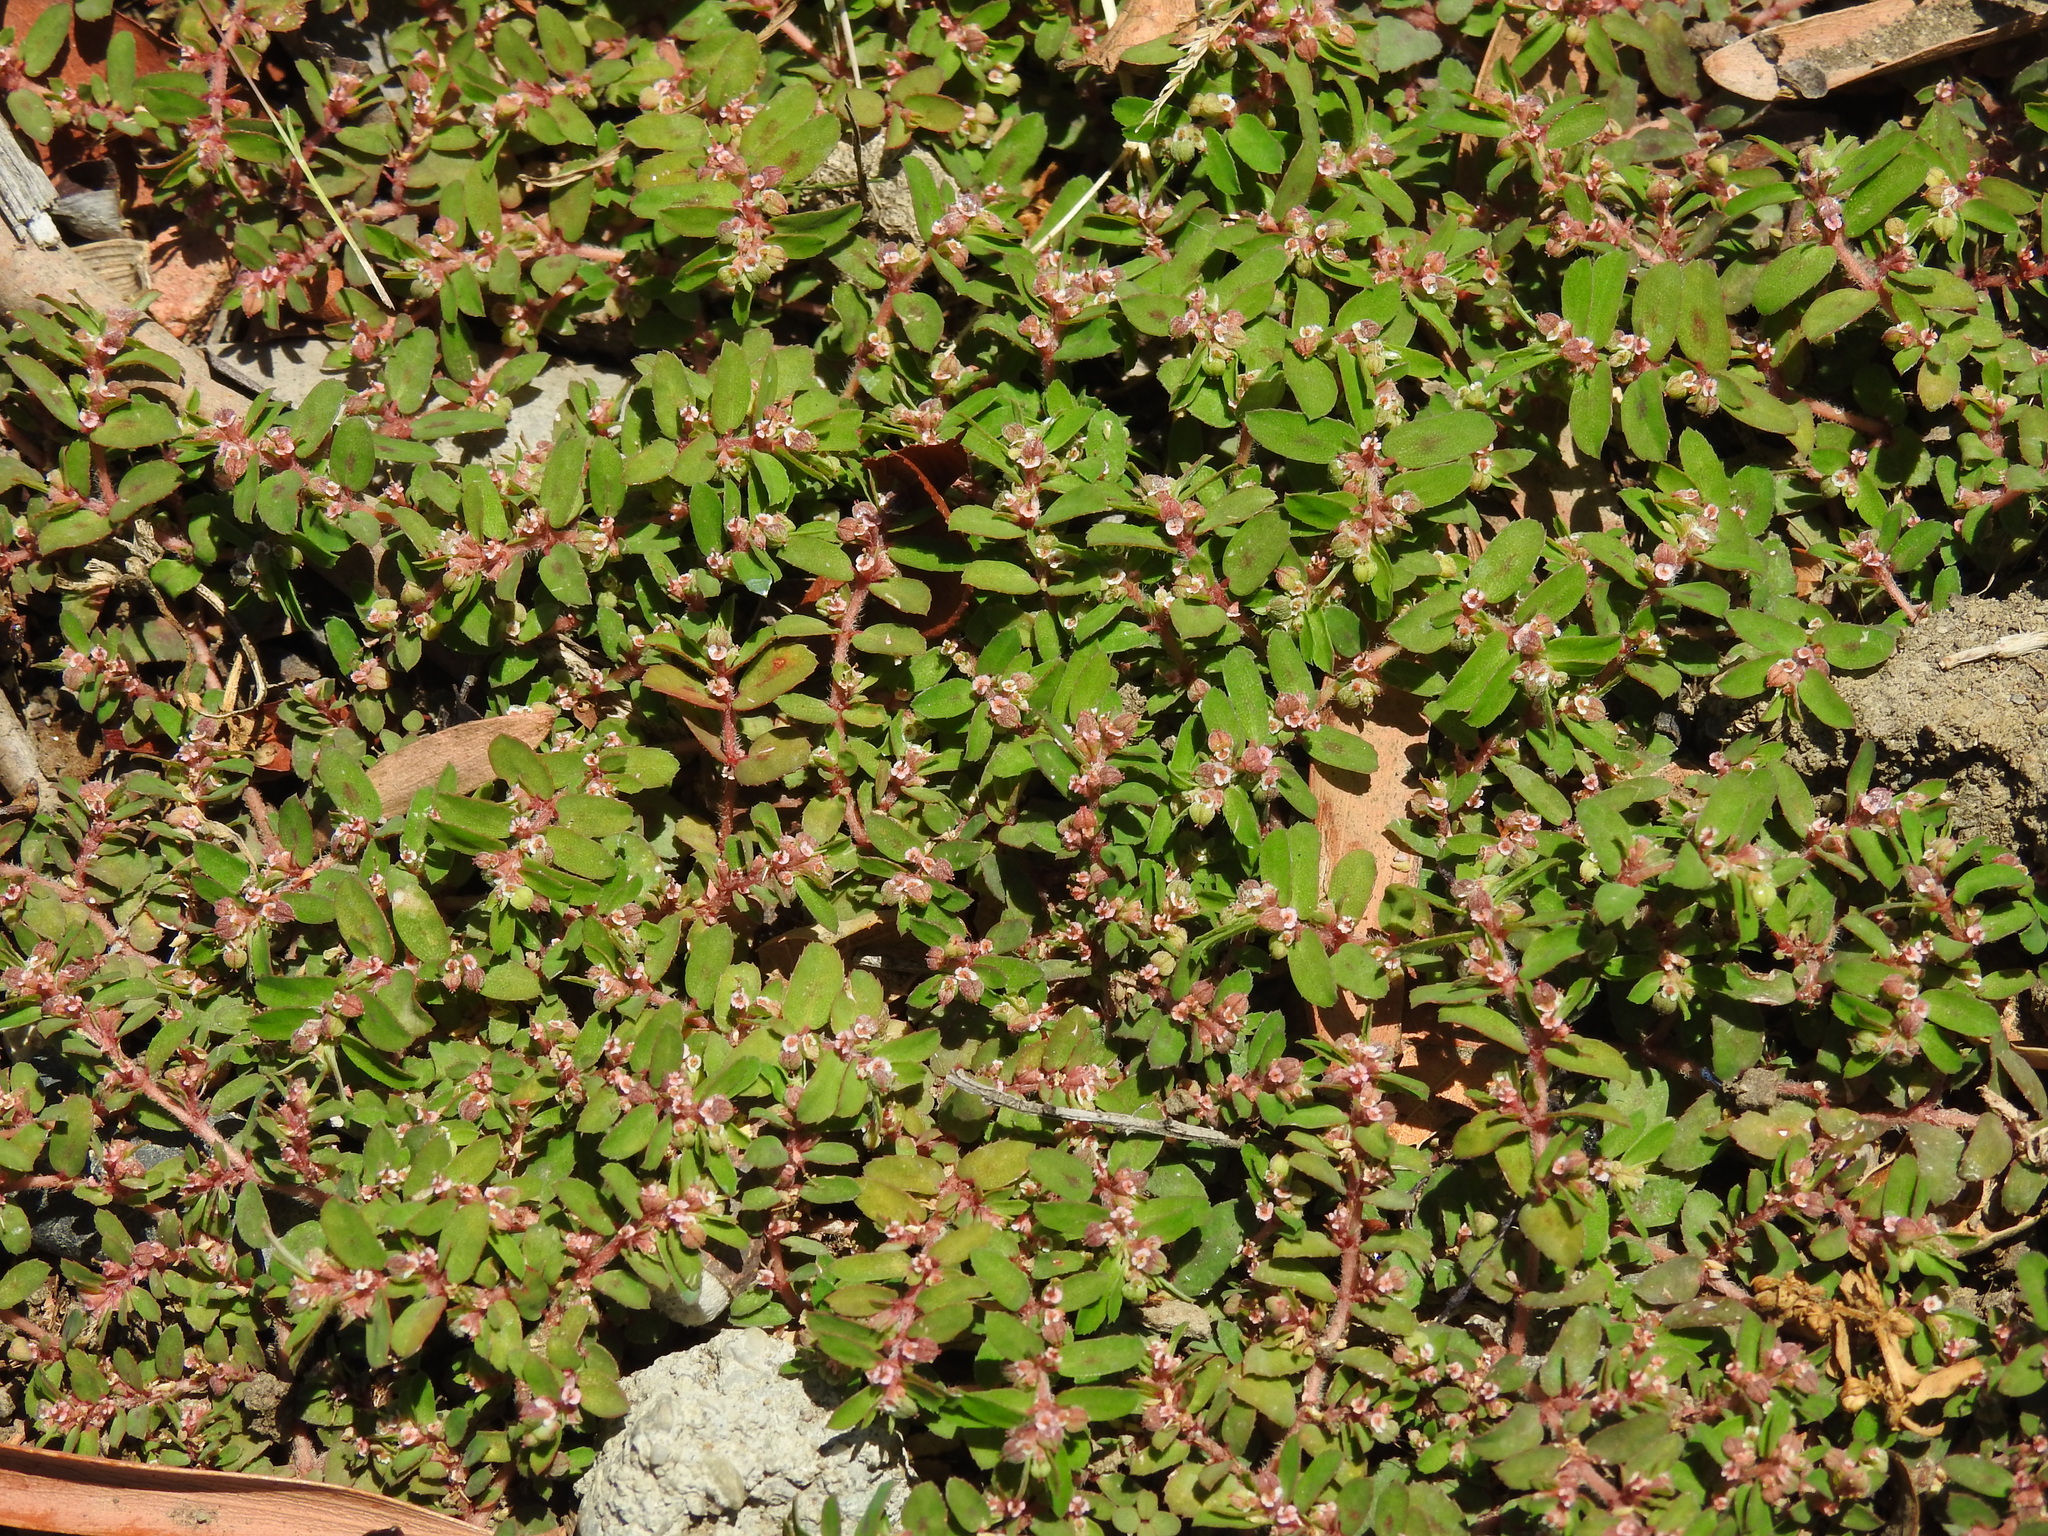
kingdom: Plantae
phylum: Tracheophyta
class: Magnoliopsida
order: Malpighiales
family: Euphorbiaceae
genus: Euphorbia
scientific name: Euphorbia maculata
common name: Spotted spurge
